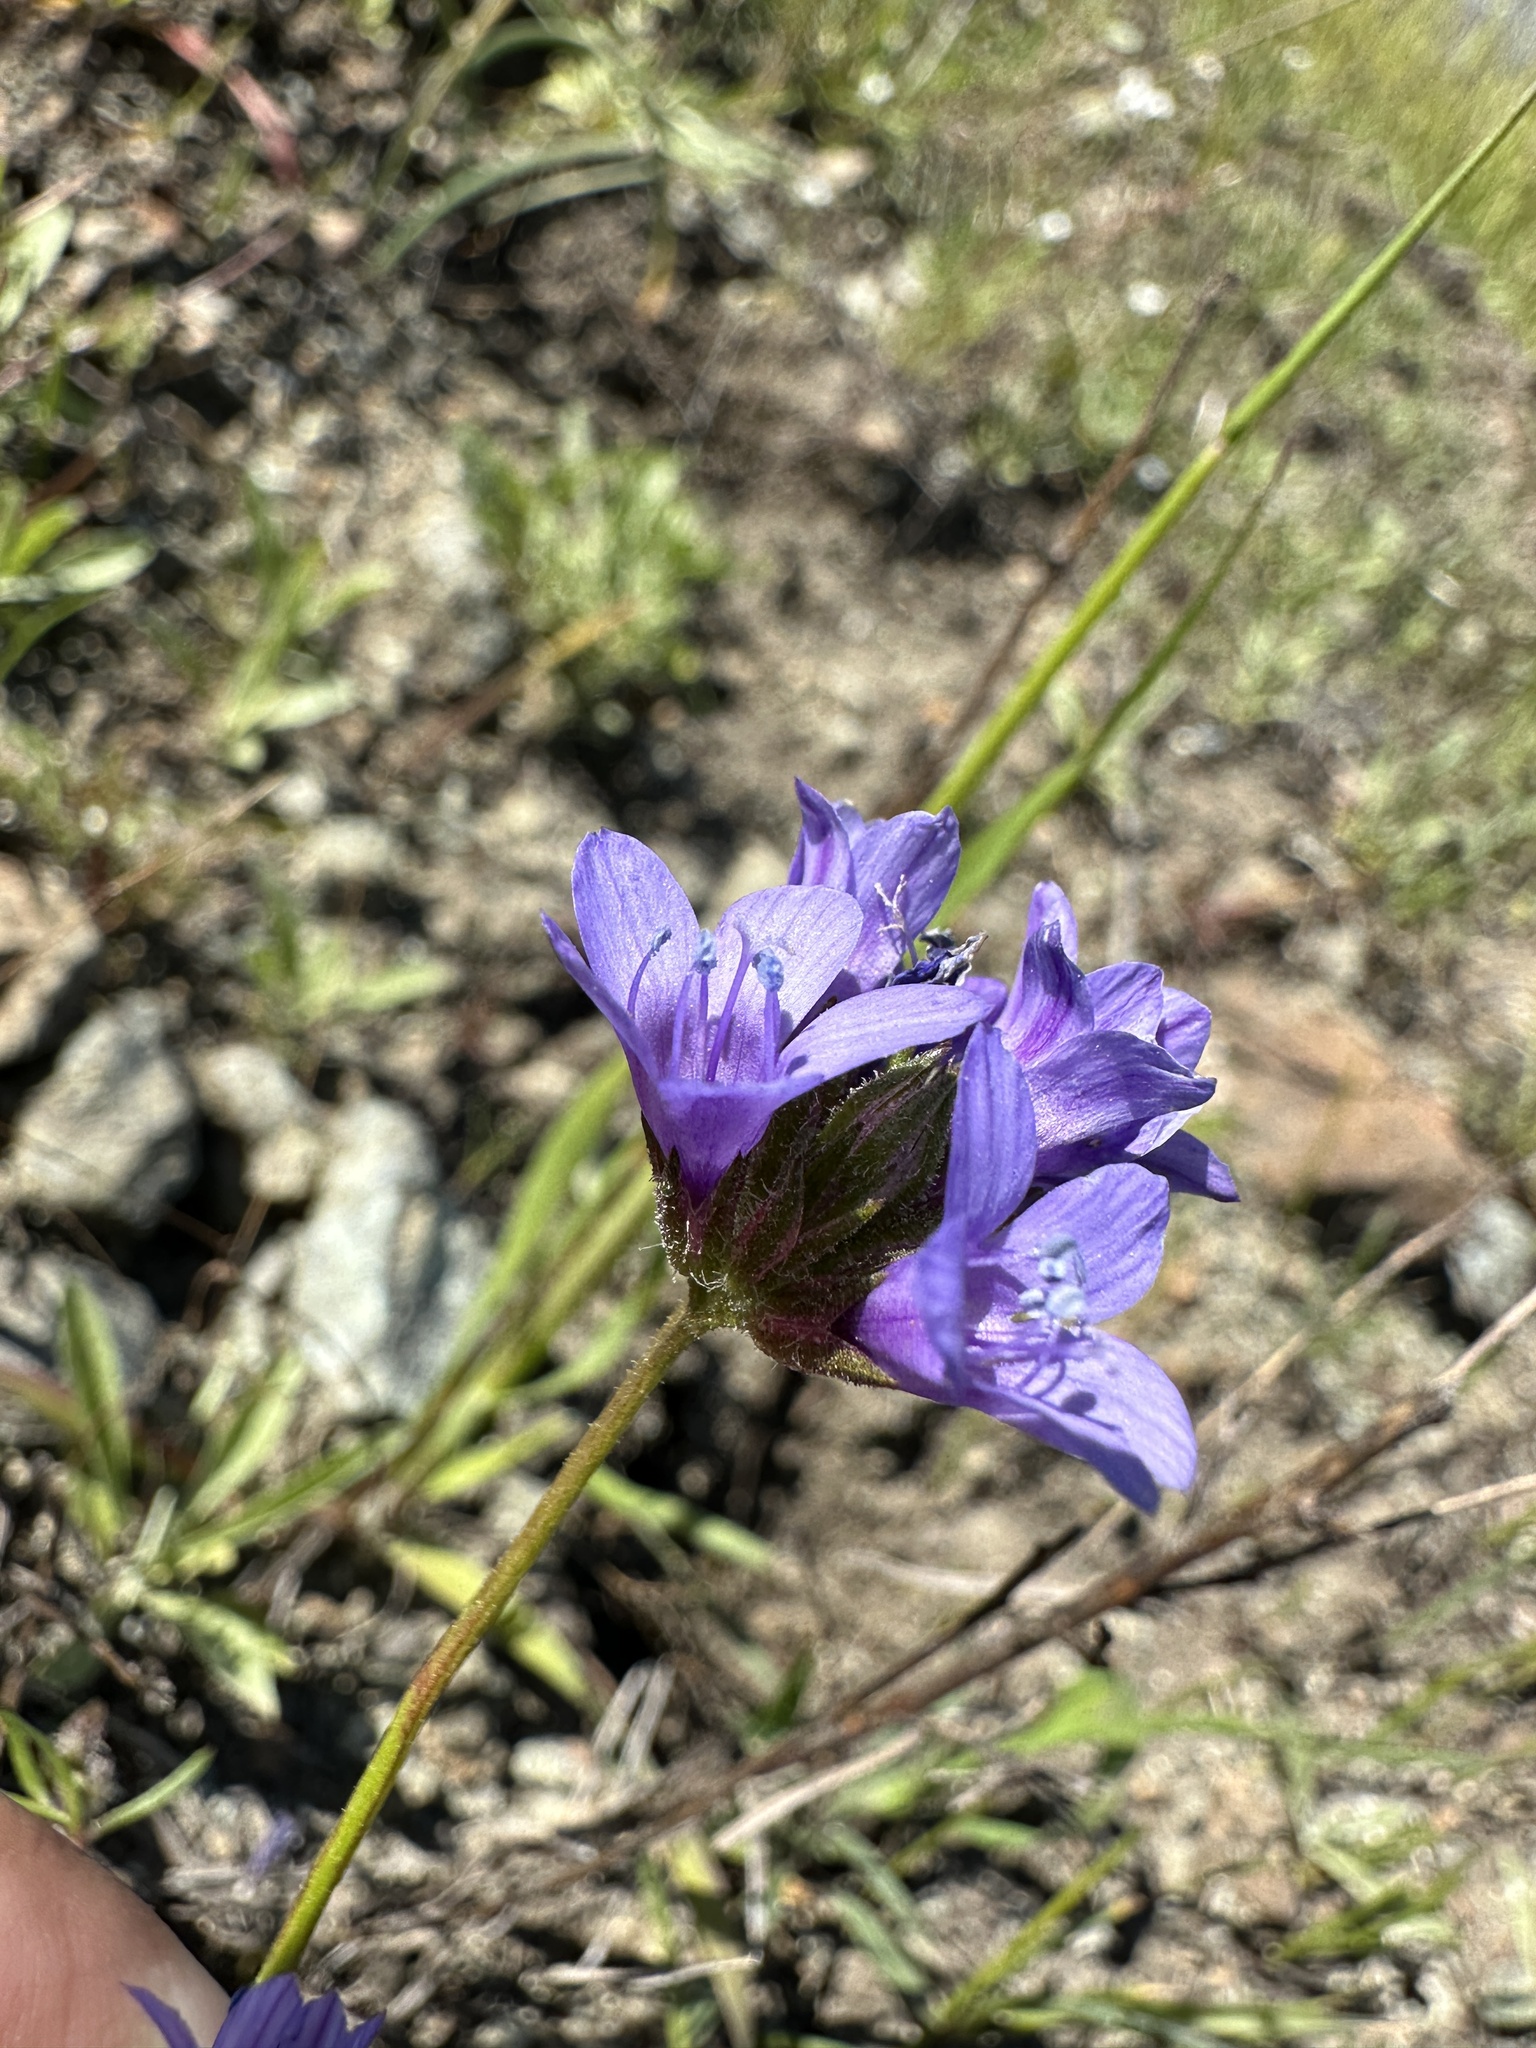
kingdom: Plantae
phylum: Tracheophyta
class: Magnoliopsida
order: Ericales
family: Polemoniaceae
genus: Gilia
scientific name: Gilia achilleifolia
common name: California gily-flower
